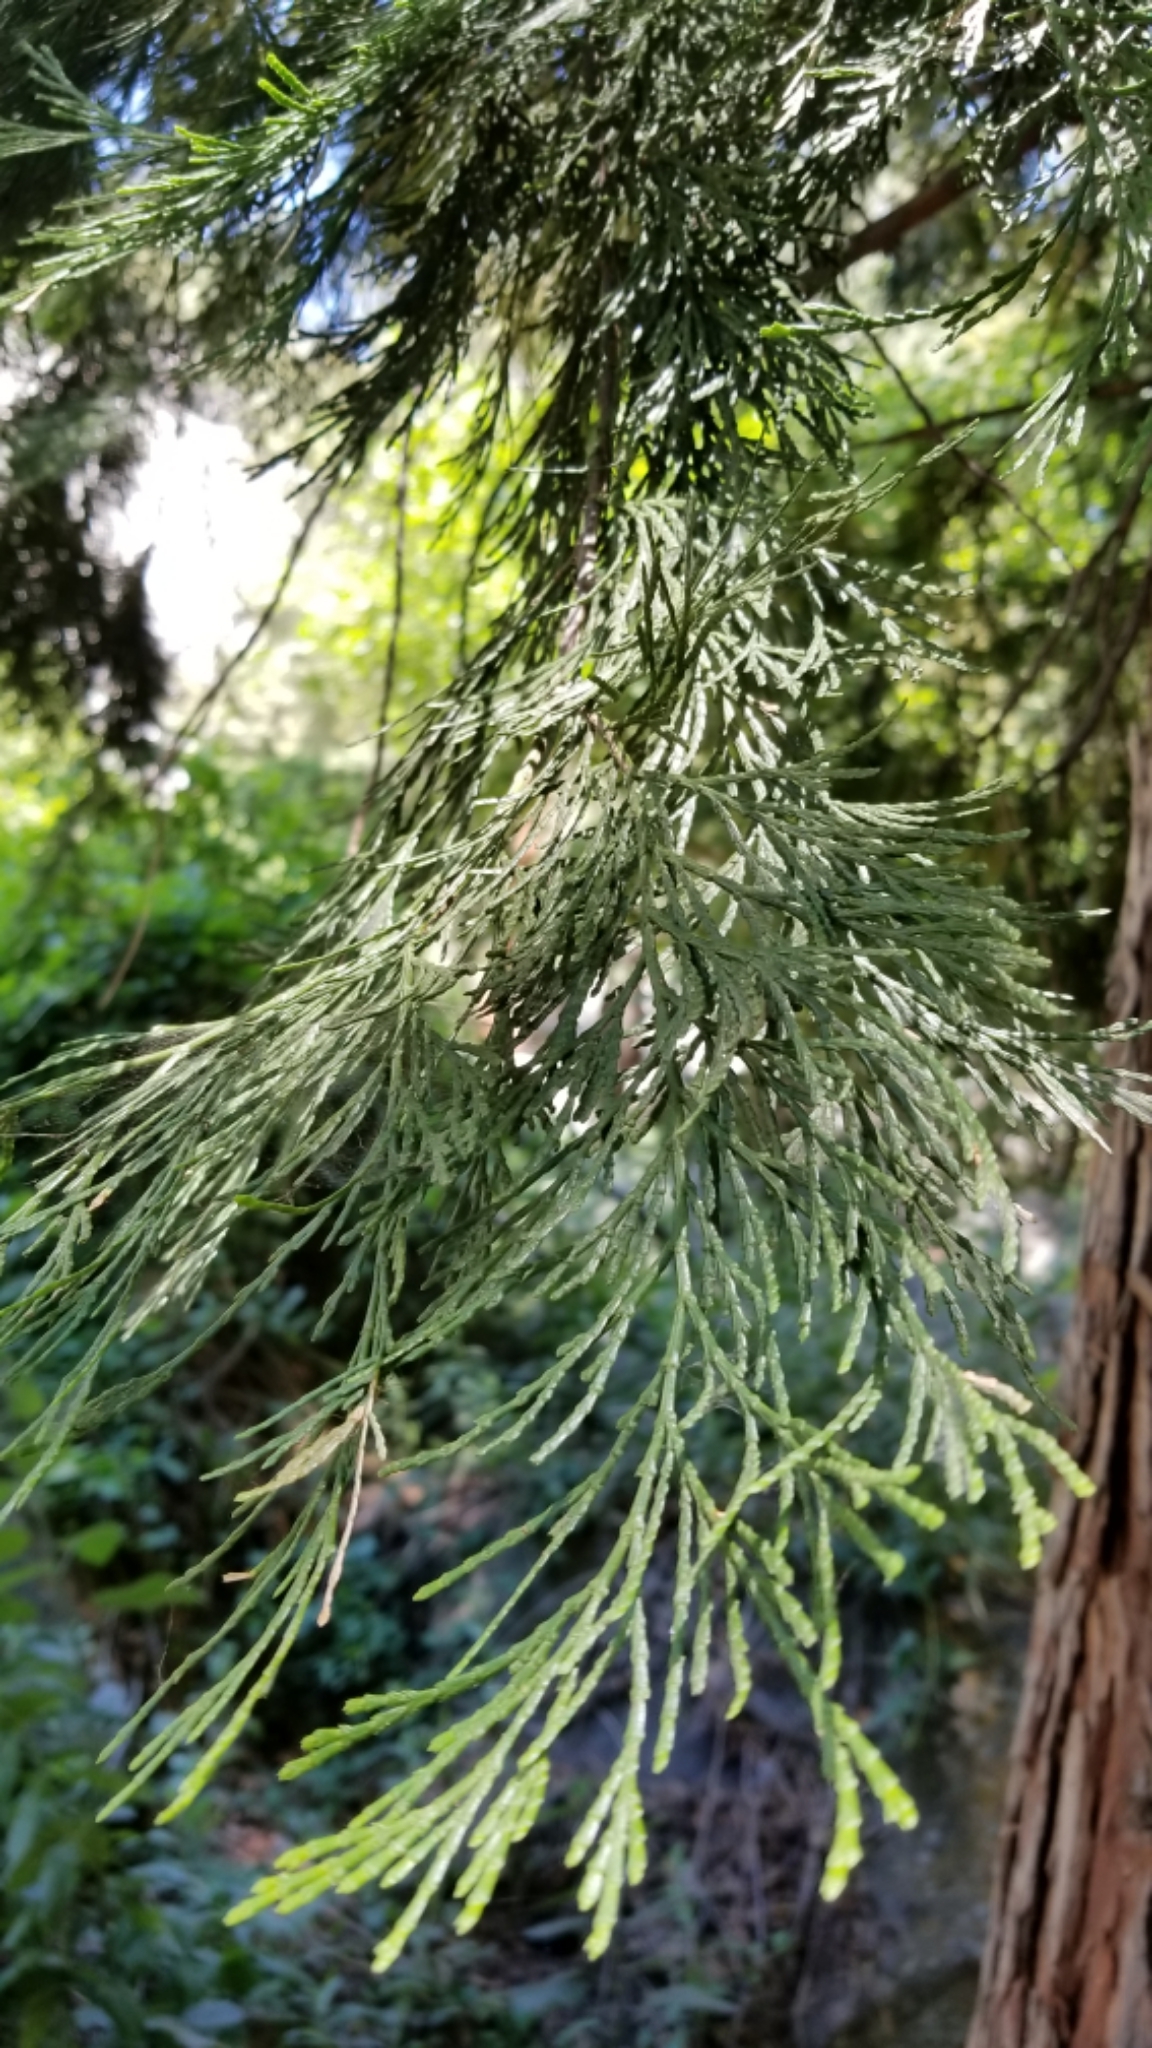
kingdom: Plantae
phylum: Tracheophyta
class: Pinopsida
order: Pinales
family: Cupressaceae
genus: Calocedrus
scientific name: Calocedrus decurrens
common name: Californian incense-cedar
